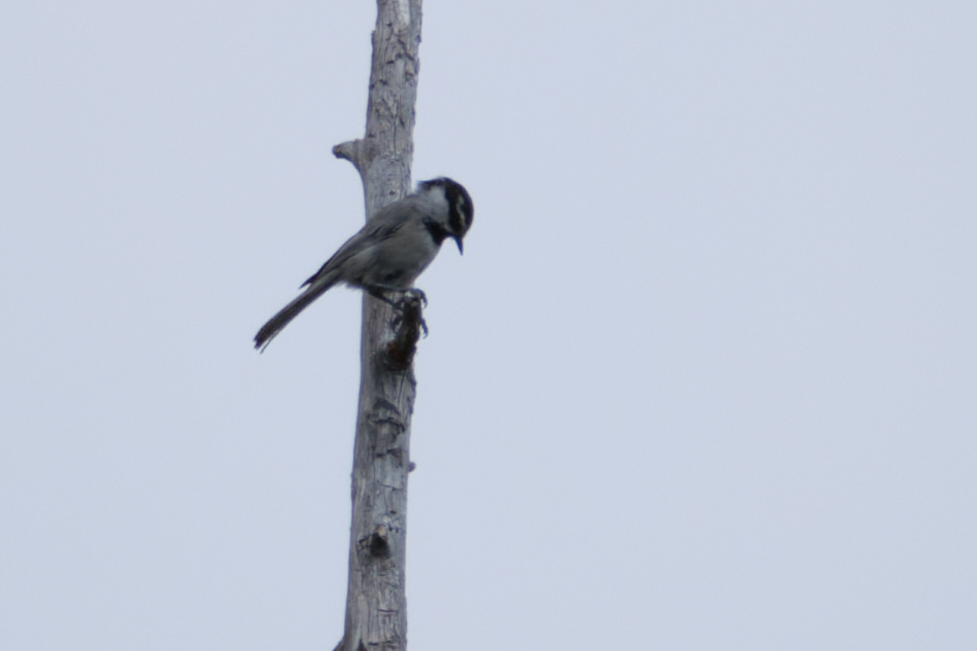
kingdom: Animalia
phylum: Chordata
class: Aves
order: Passeriformes
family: Paridae
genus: Poecile
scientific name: Poecile gambeli
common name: Mountain chickadee
